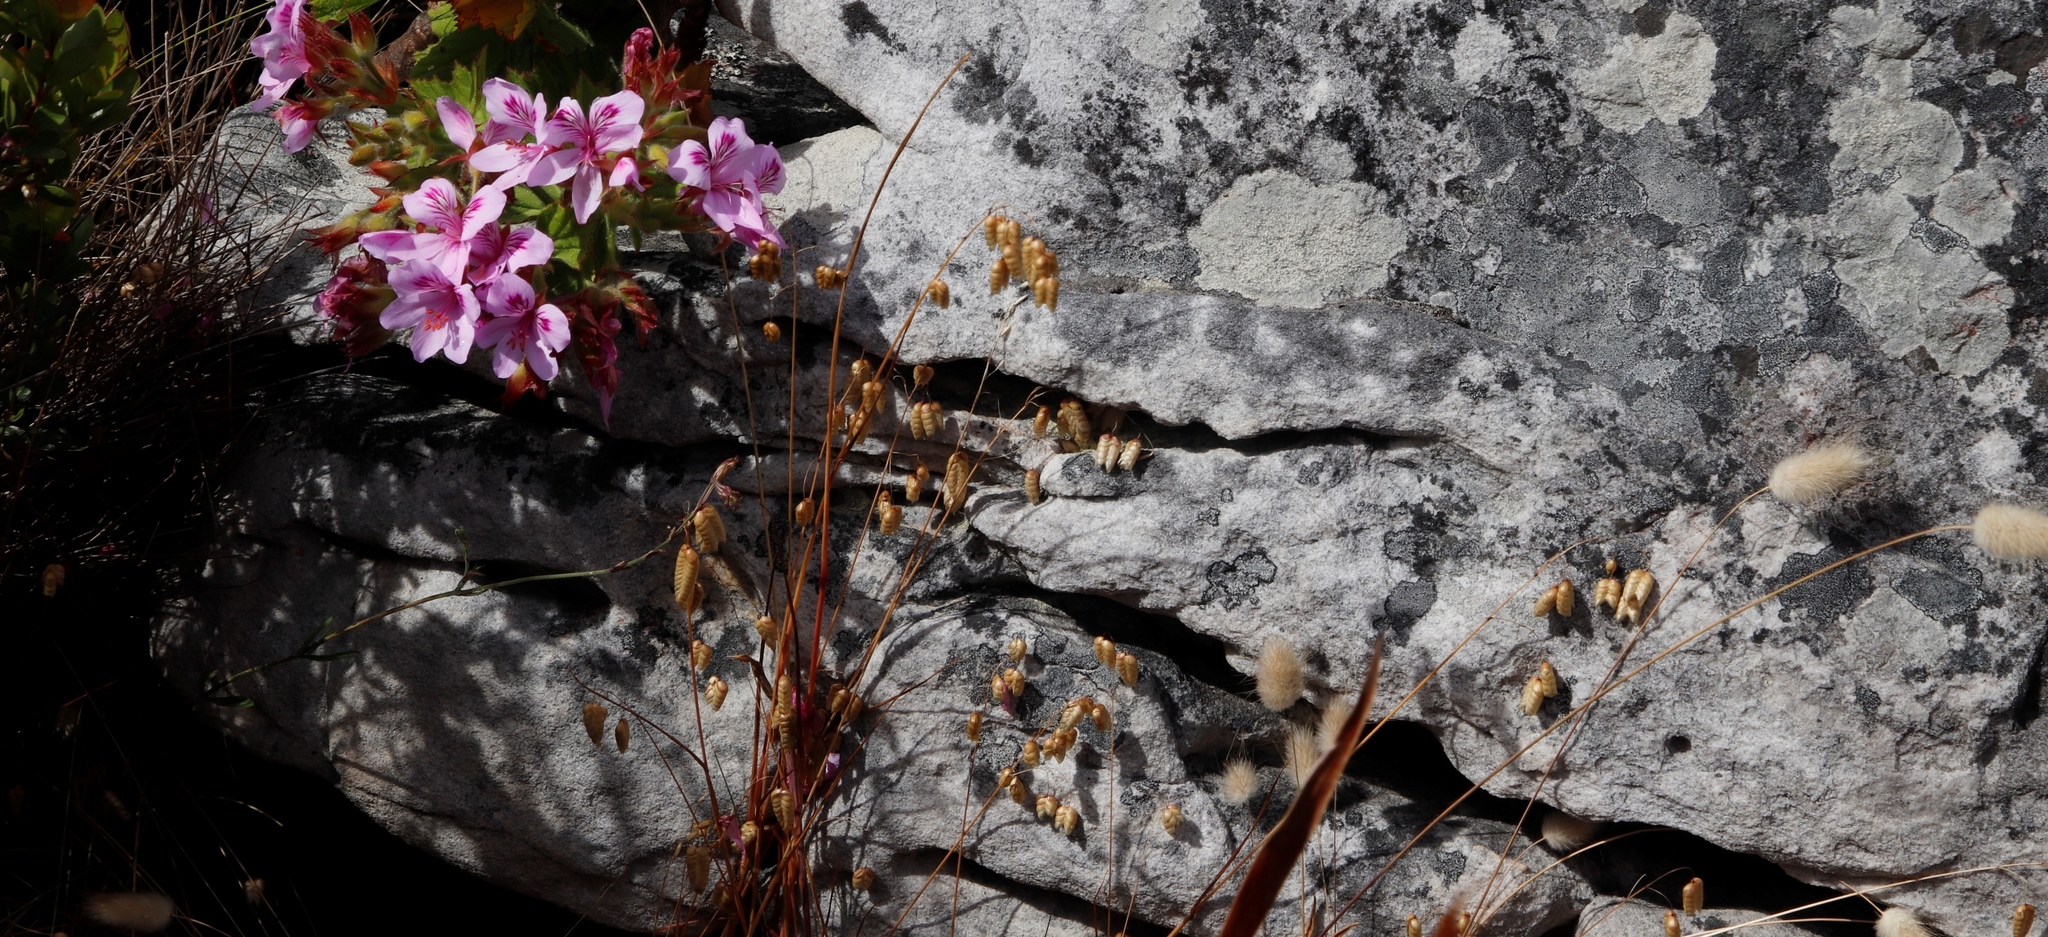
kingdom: Plantae
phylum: Tracheophyta
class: Liliopsida
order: Poales
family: Poaceae
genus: Briza
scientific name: Briza maxima
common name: Big quakinggrass
